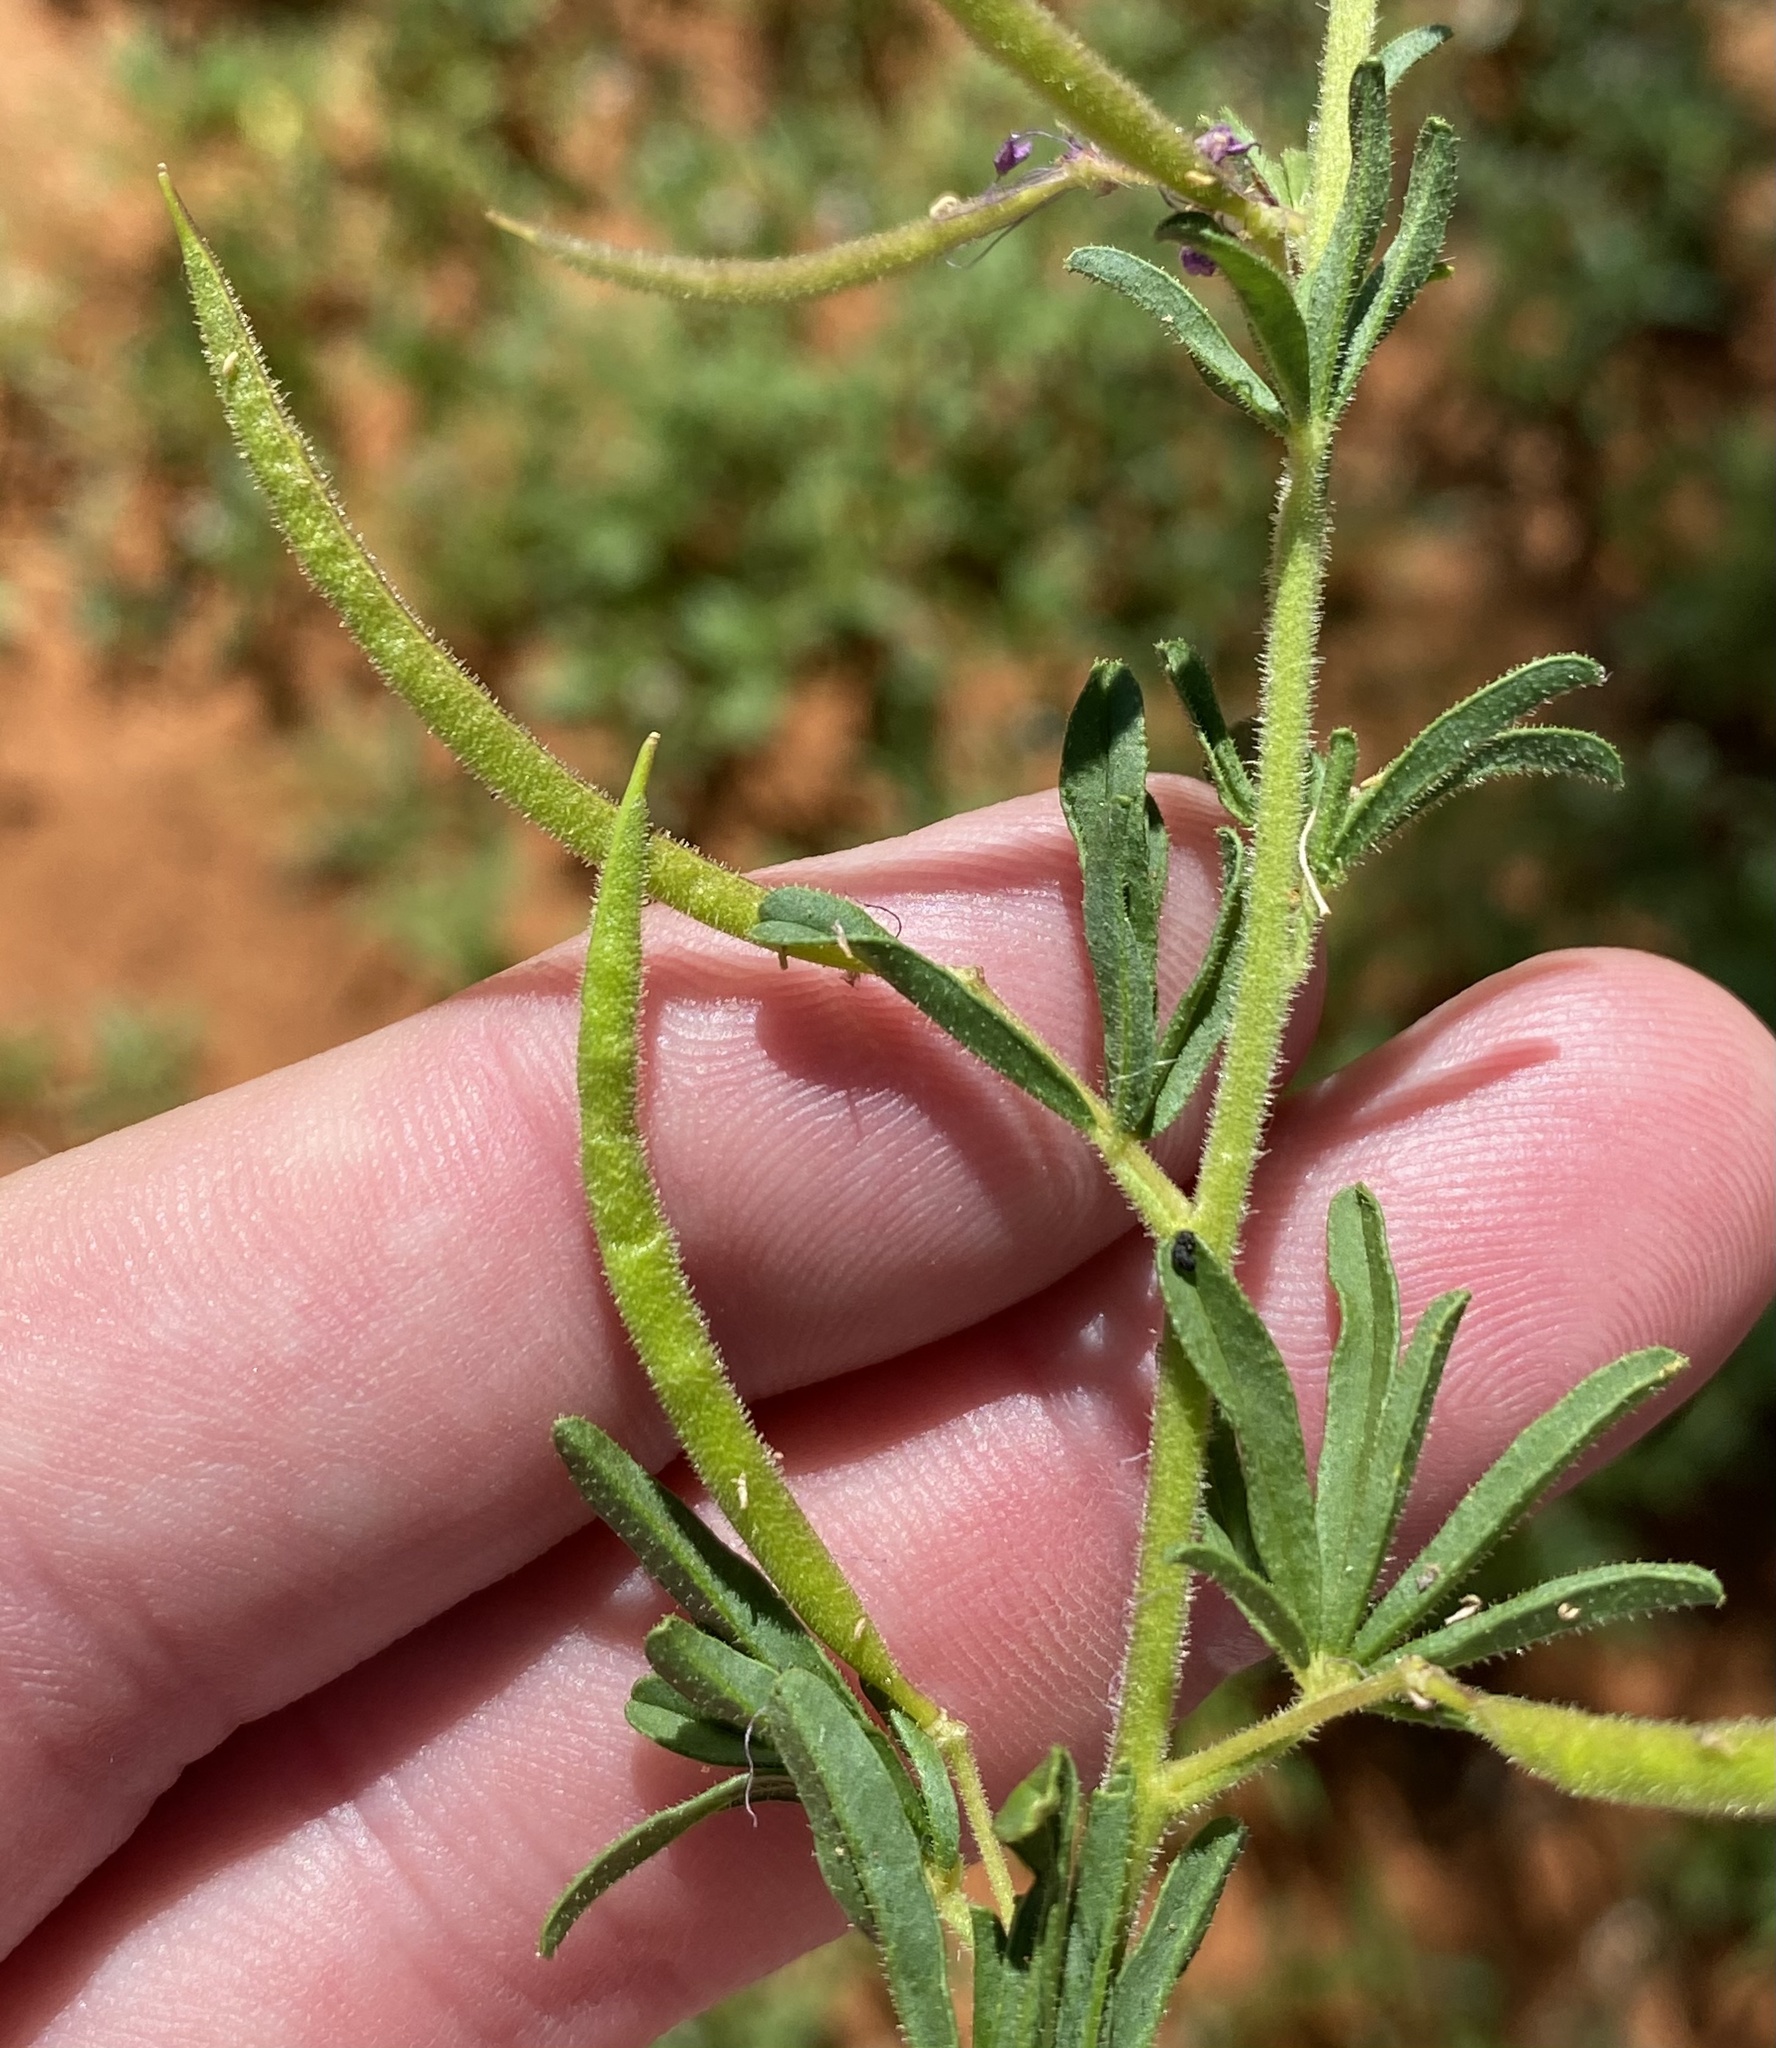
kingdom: Plantae
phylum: Tracheophyta
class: Magnoliopsida
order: Brassicales
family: Cleomaceae
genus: Sieruela
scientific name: Sieruela rubella
